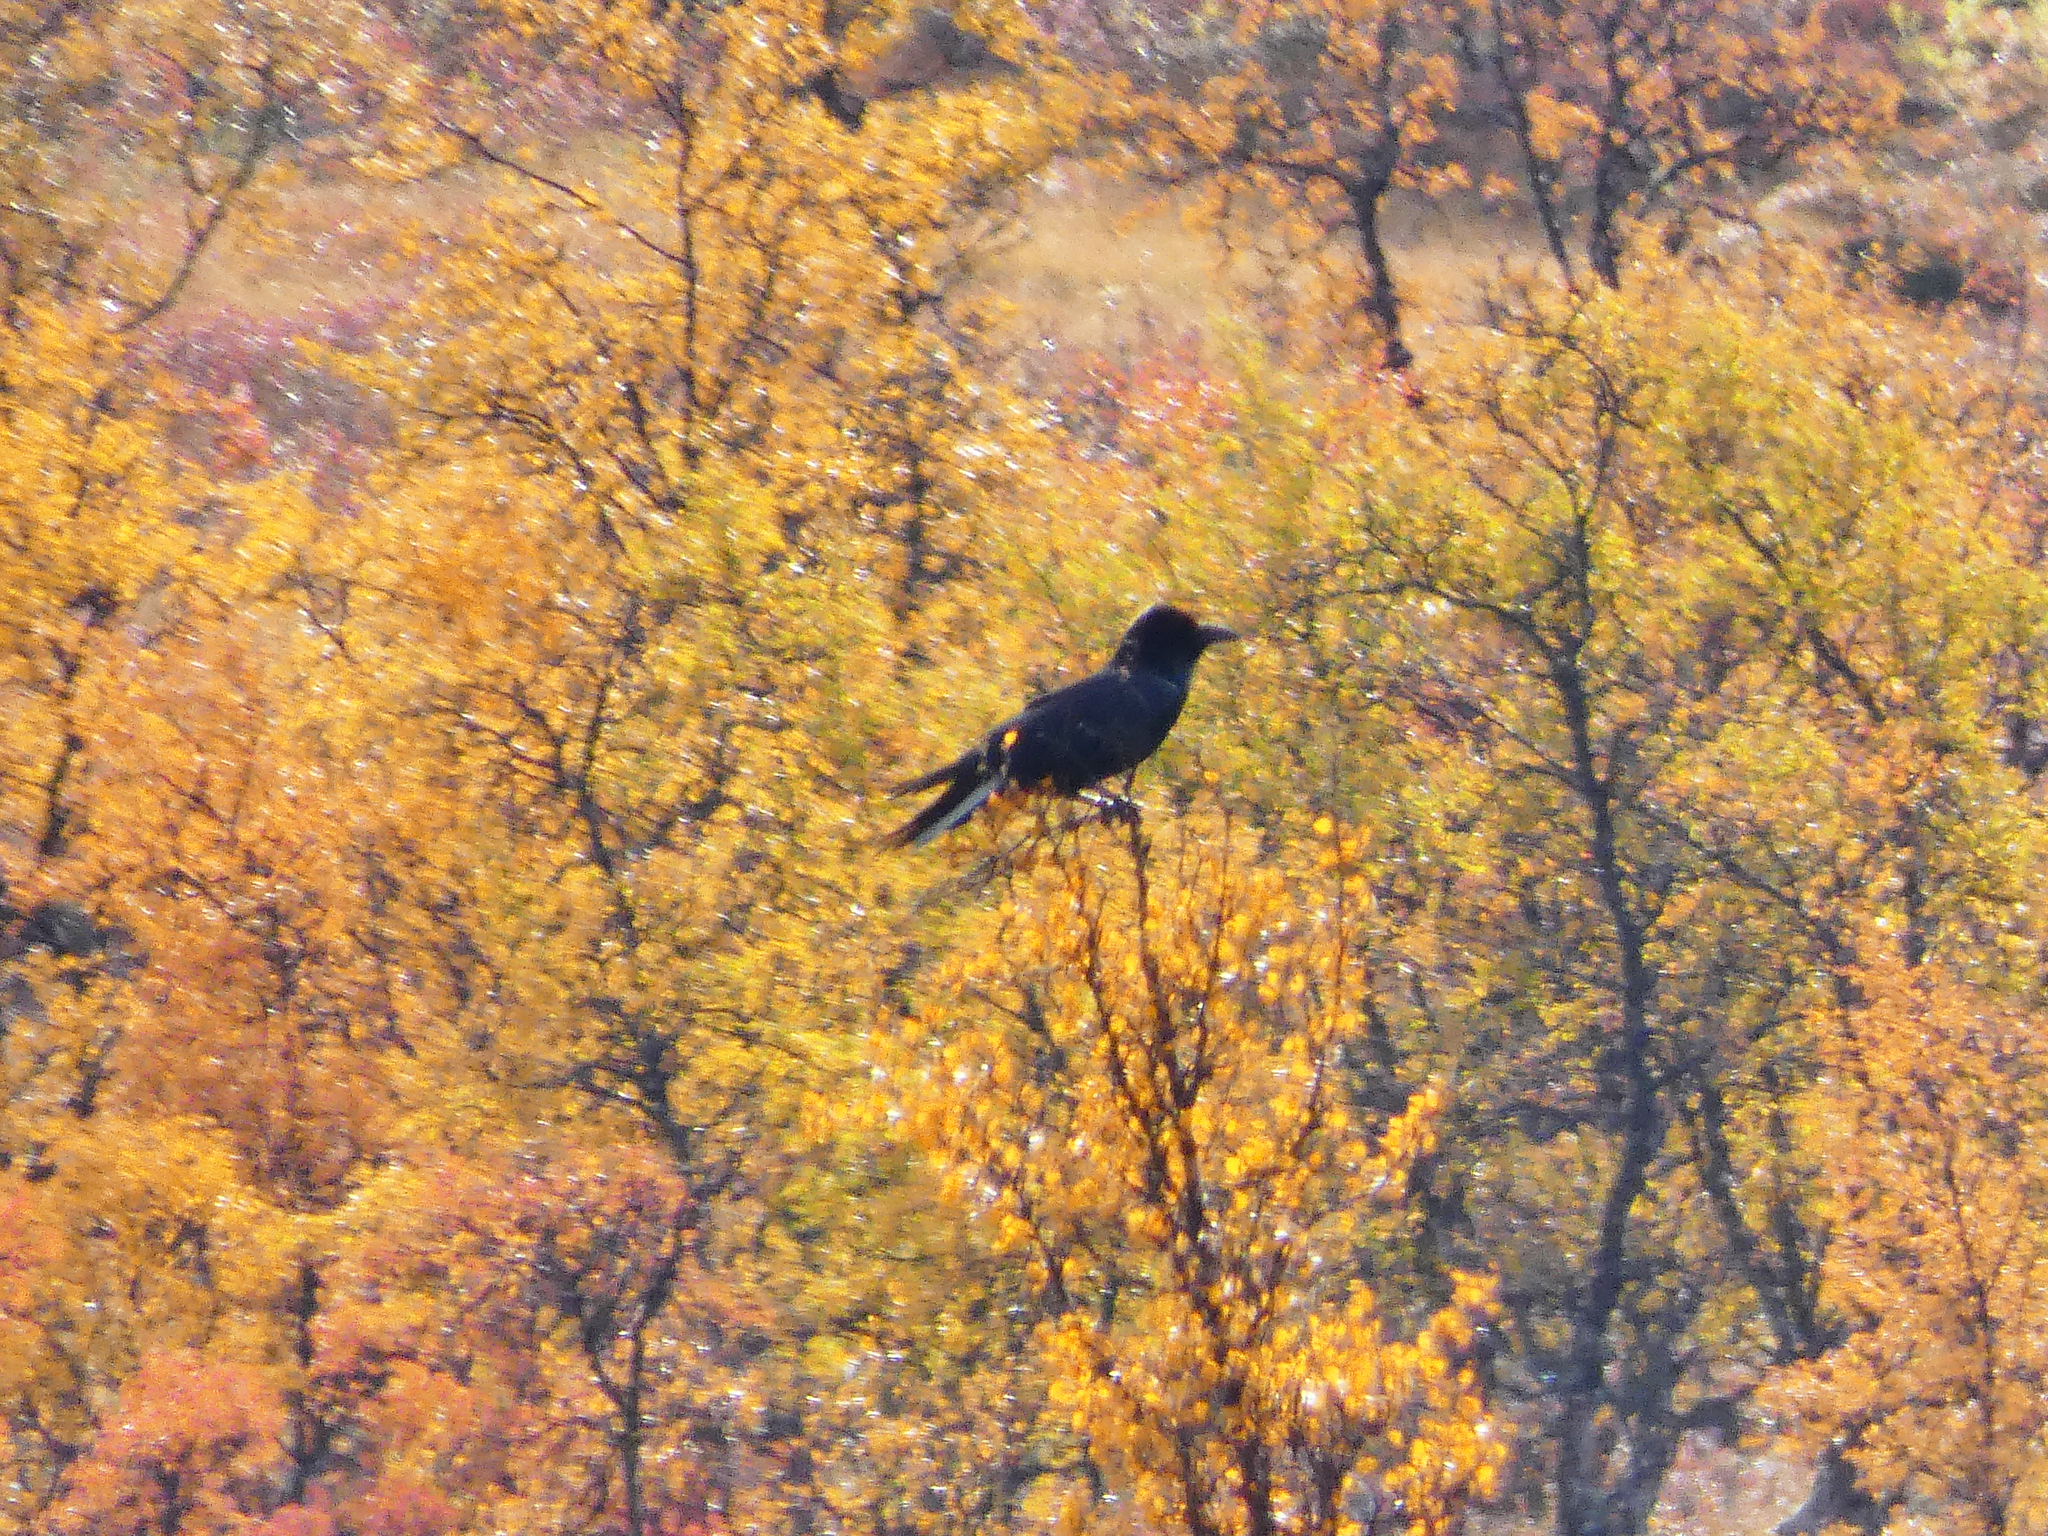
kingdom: Animalia
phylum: Chordata
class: Aves
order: Passeriformes
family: Corvidae
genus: Corvus
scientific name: Corvus corax
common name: Common raven
